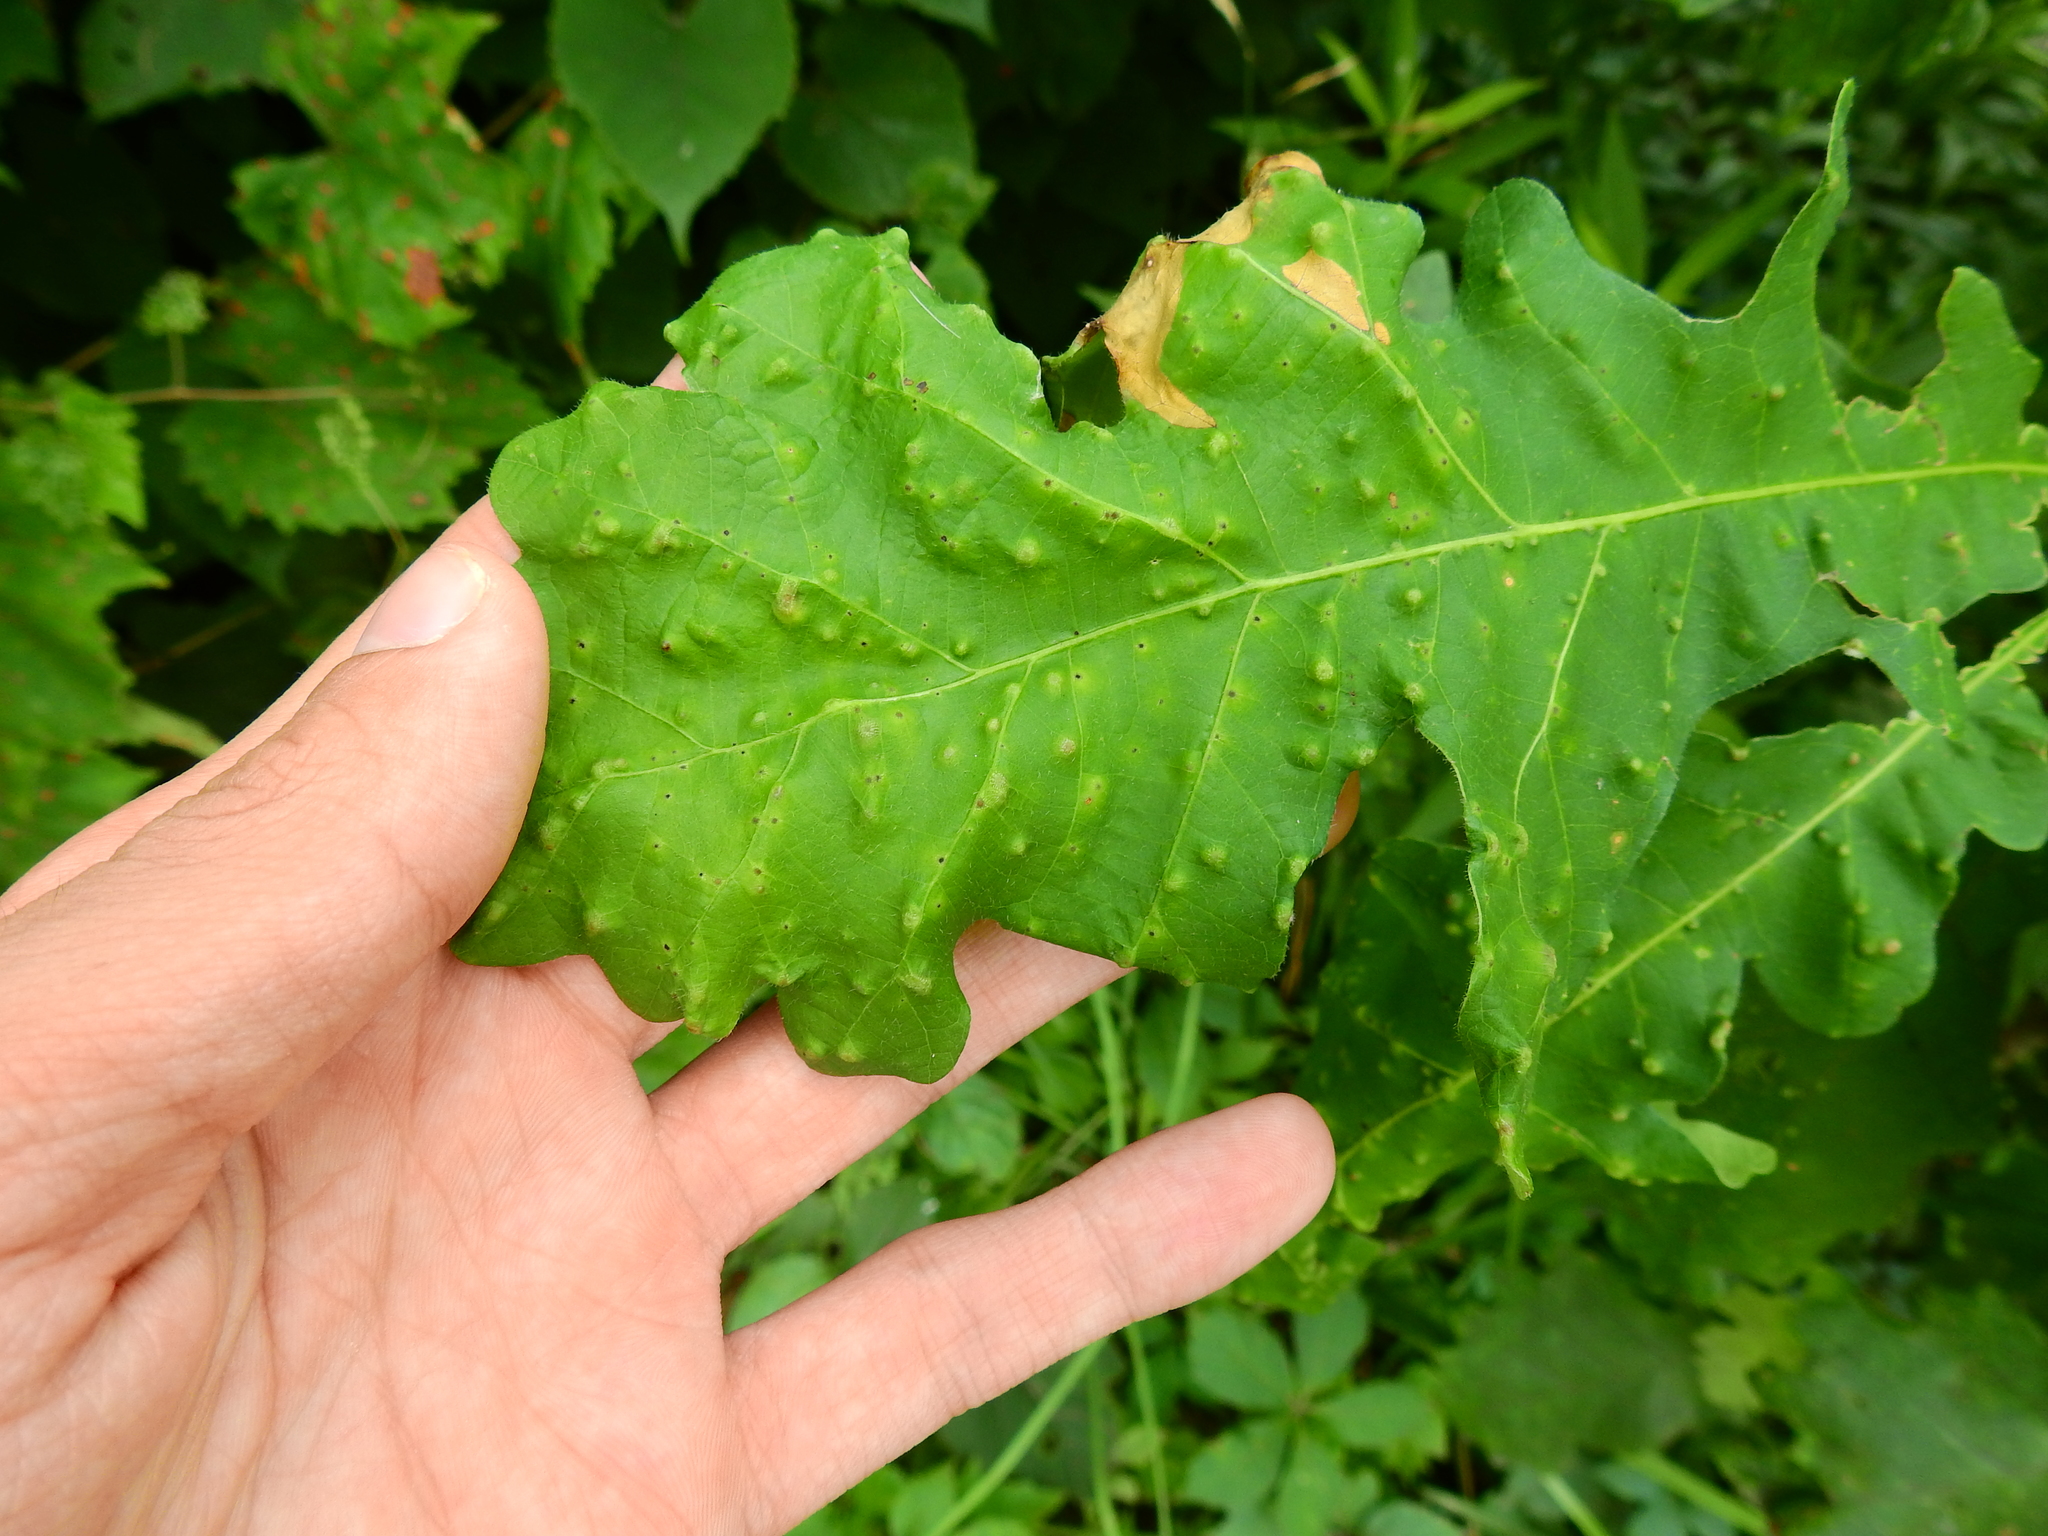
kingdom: Animalia
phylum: Arthropoda
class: Insecta
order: Hymenoptera
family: Cynipidae
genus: Neuroterus
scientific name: Neuroterus quercusverrucarum
